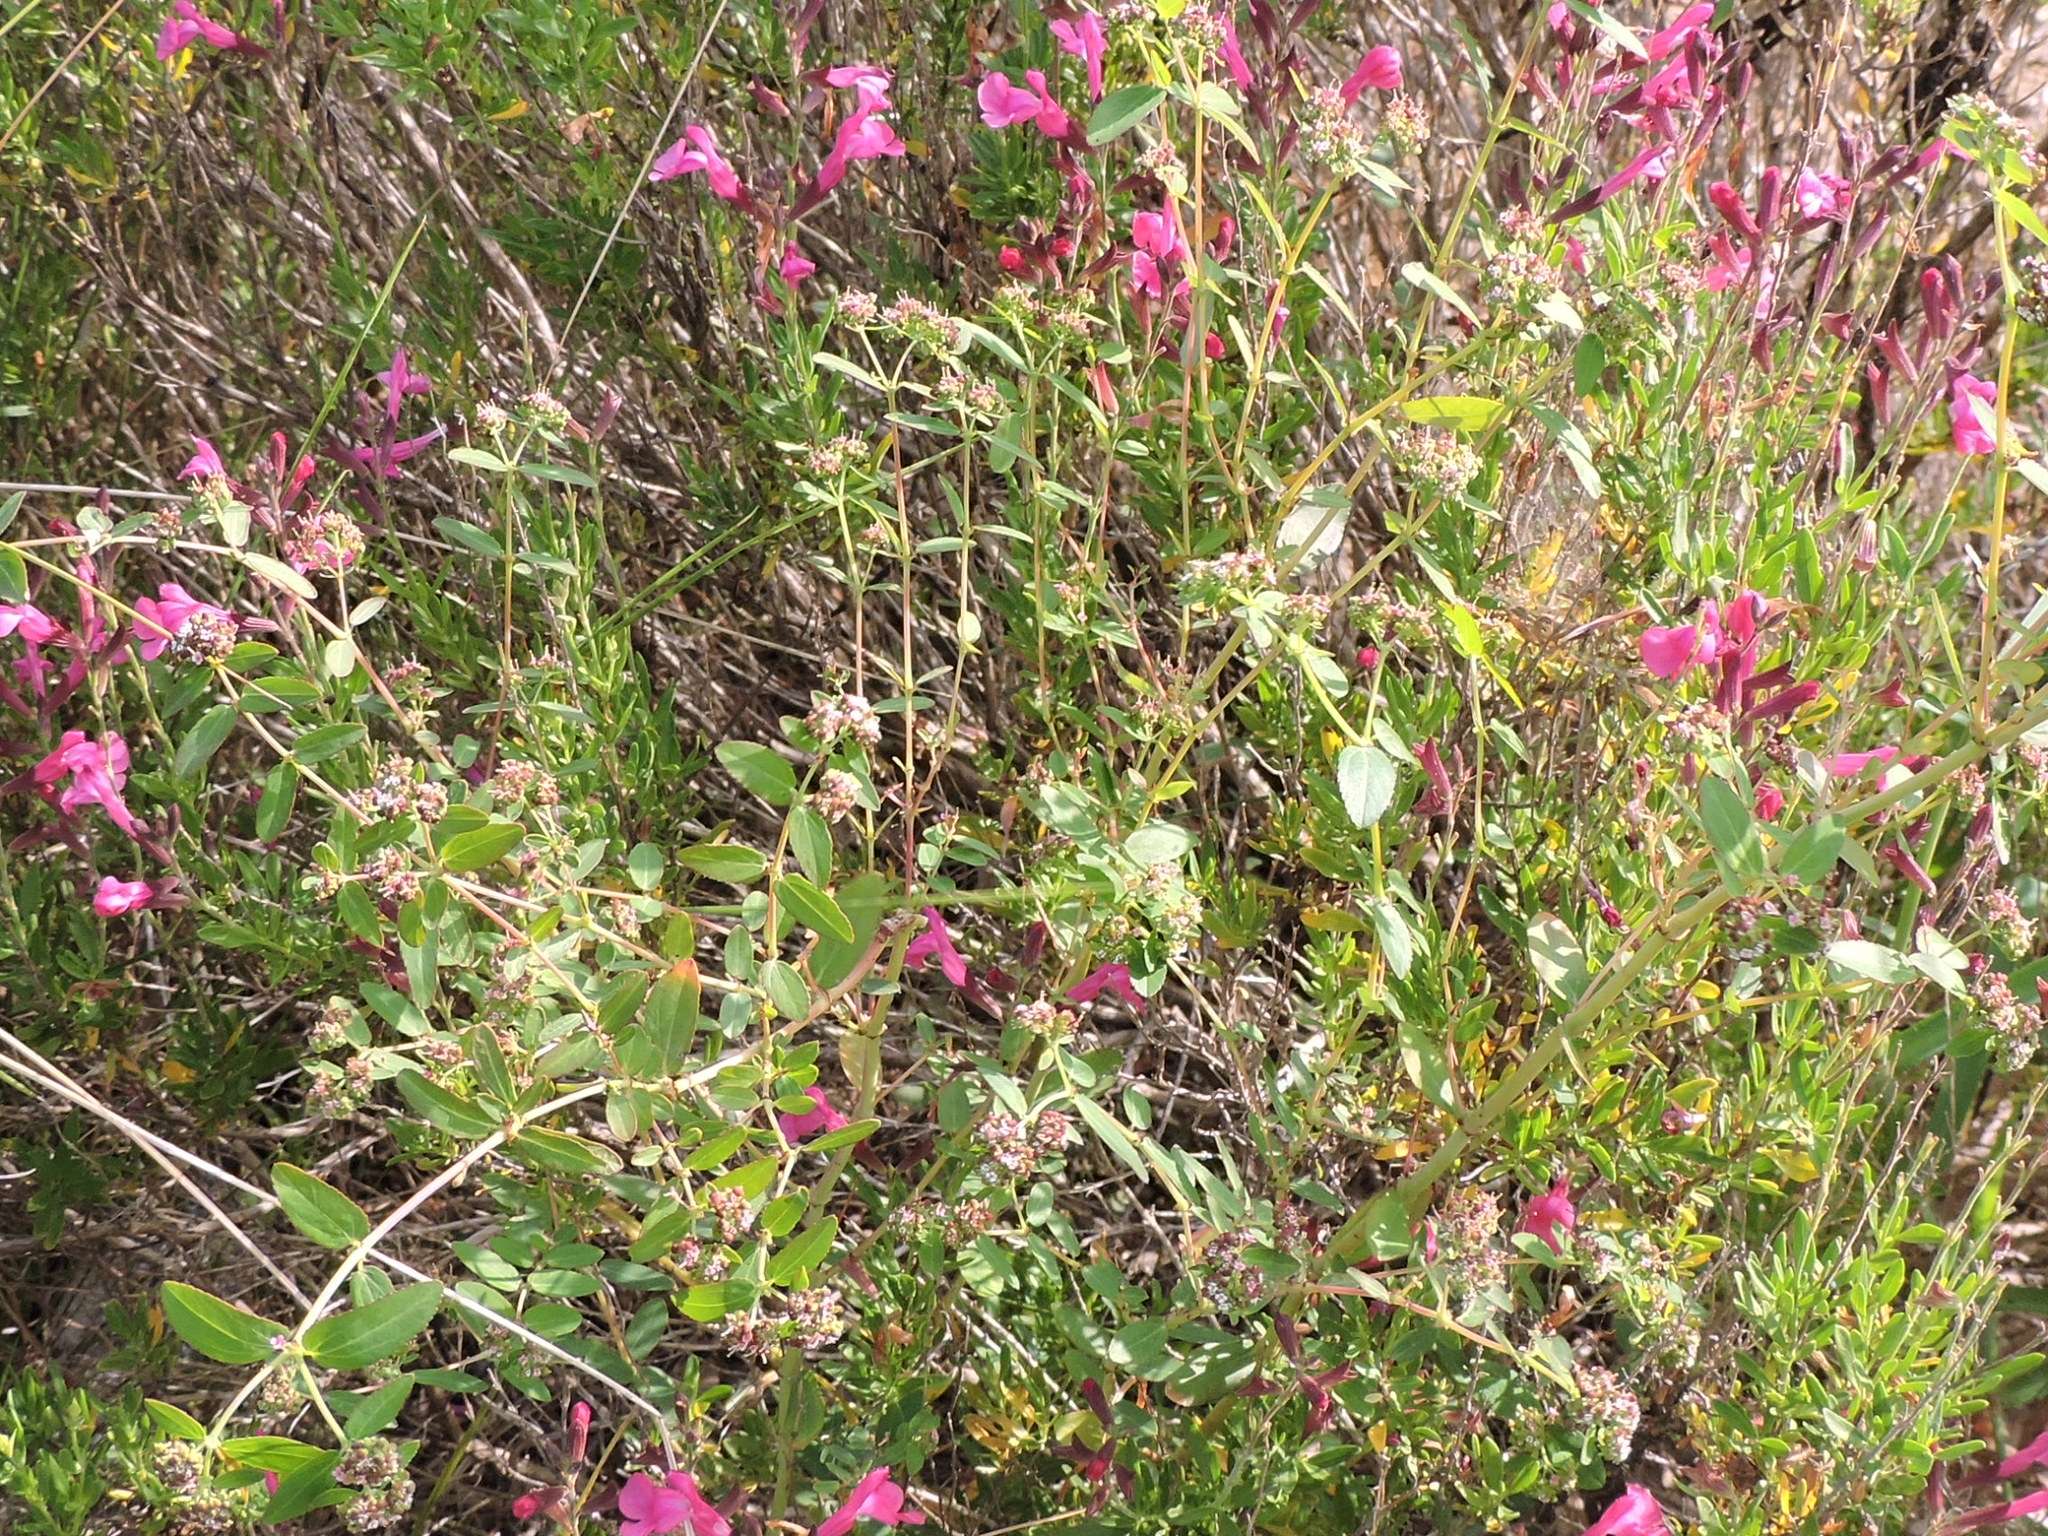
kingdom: Plantae
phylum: Tracheophyta
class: Magnoliopsida
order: Malpighiales
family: Euphorbiaceae
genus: Euphorbia
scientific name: Euphorbia hypericifolia
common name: Graceful sandmat
